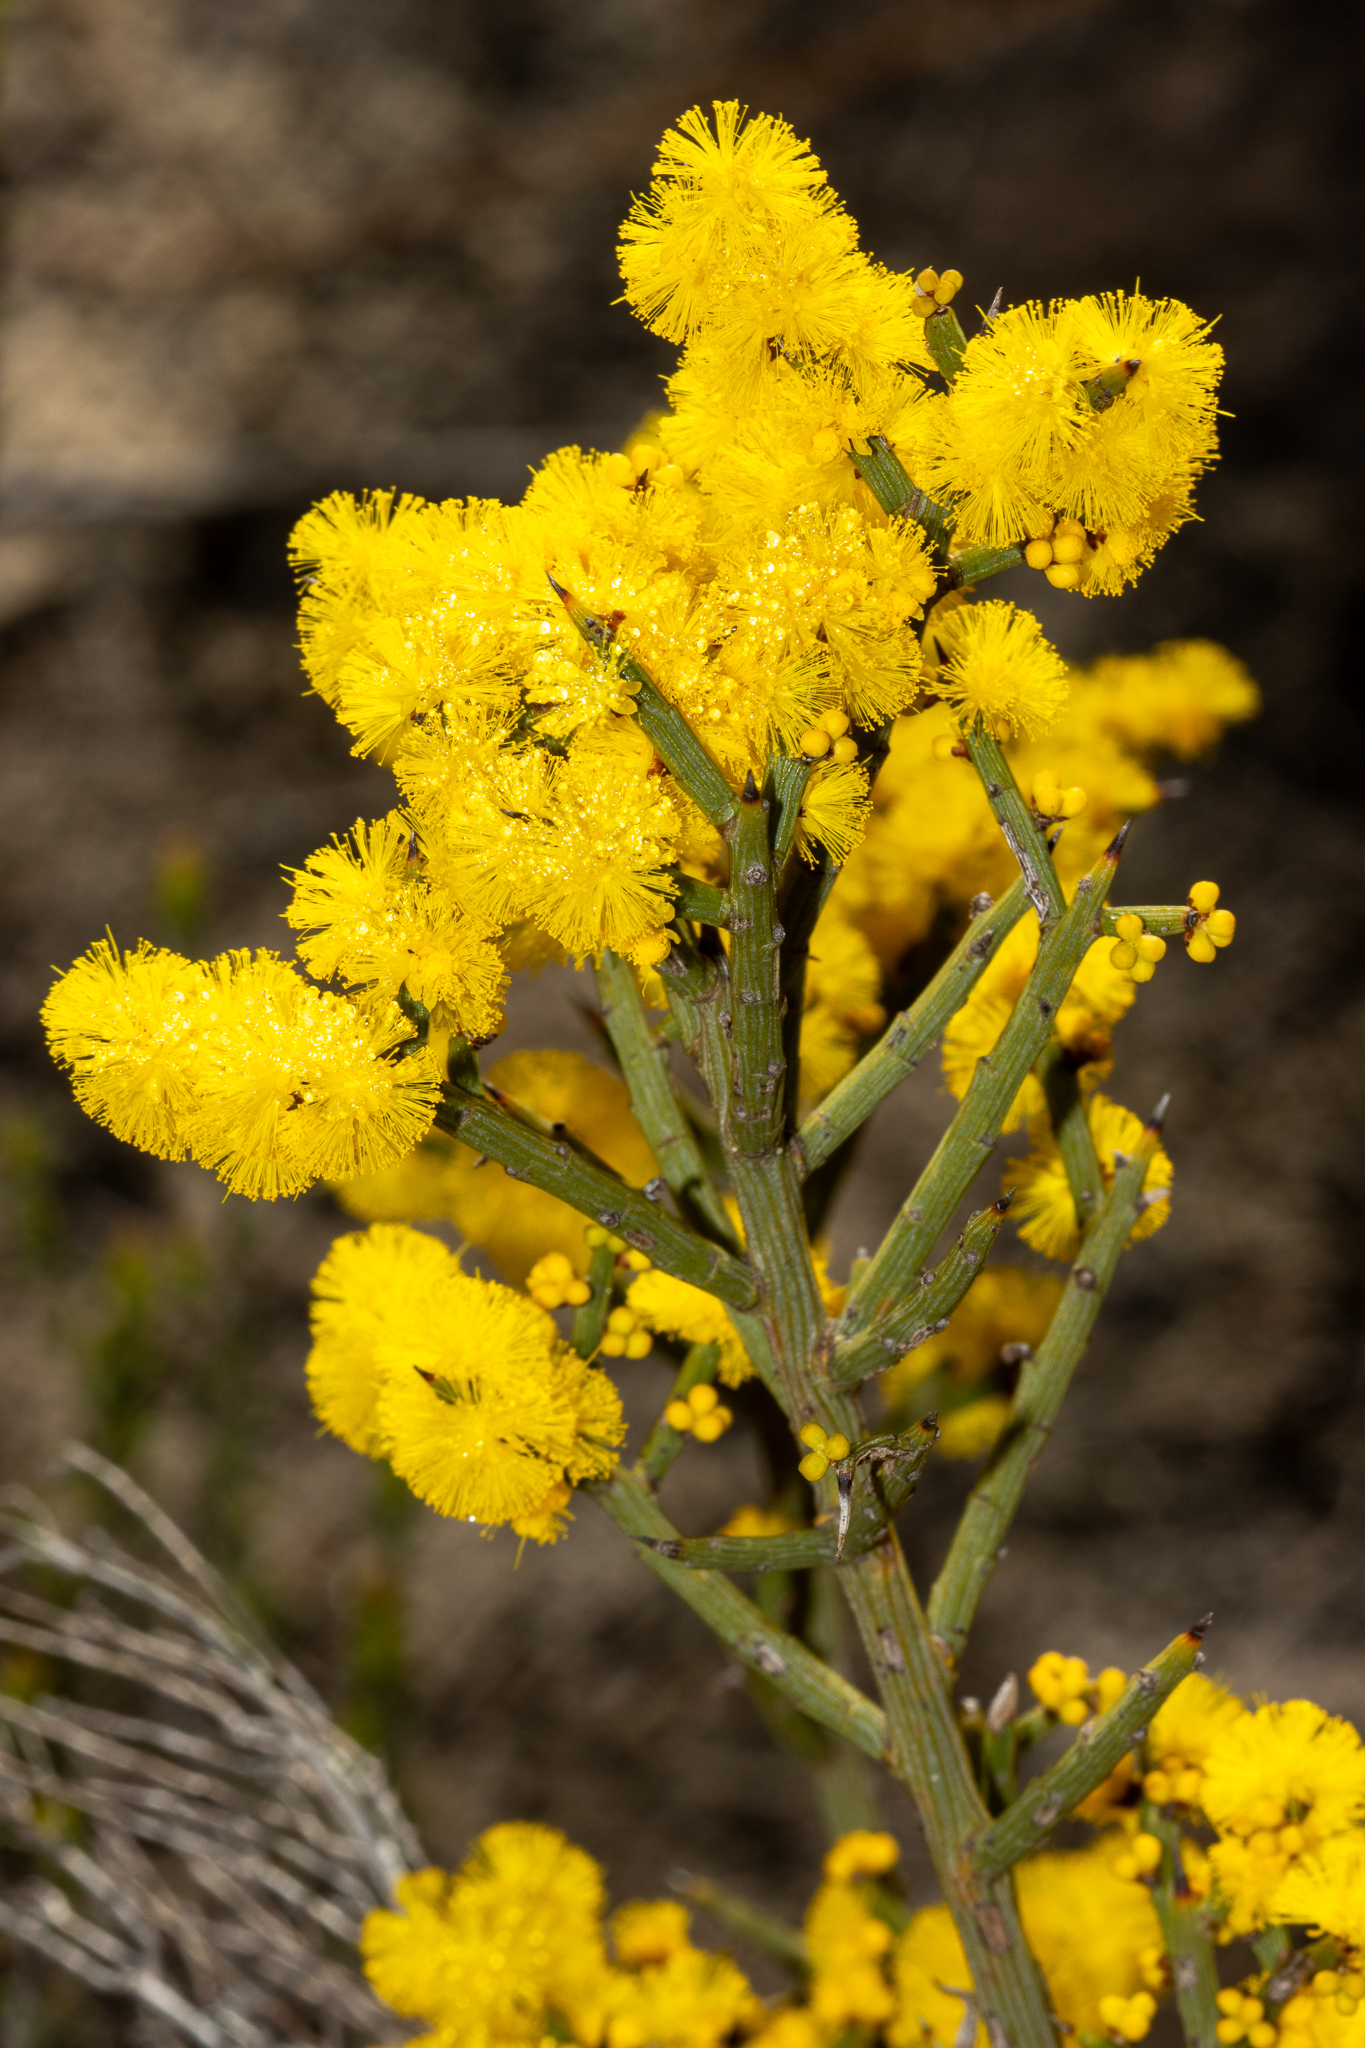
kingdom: Plantae
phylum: Tracheophyta
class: Magnoliopsida
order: Fabales
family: Fabaceae
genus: Acacia
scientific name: Acacia spinescens
